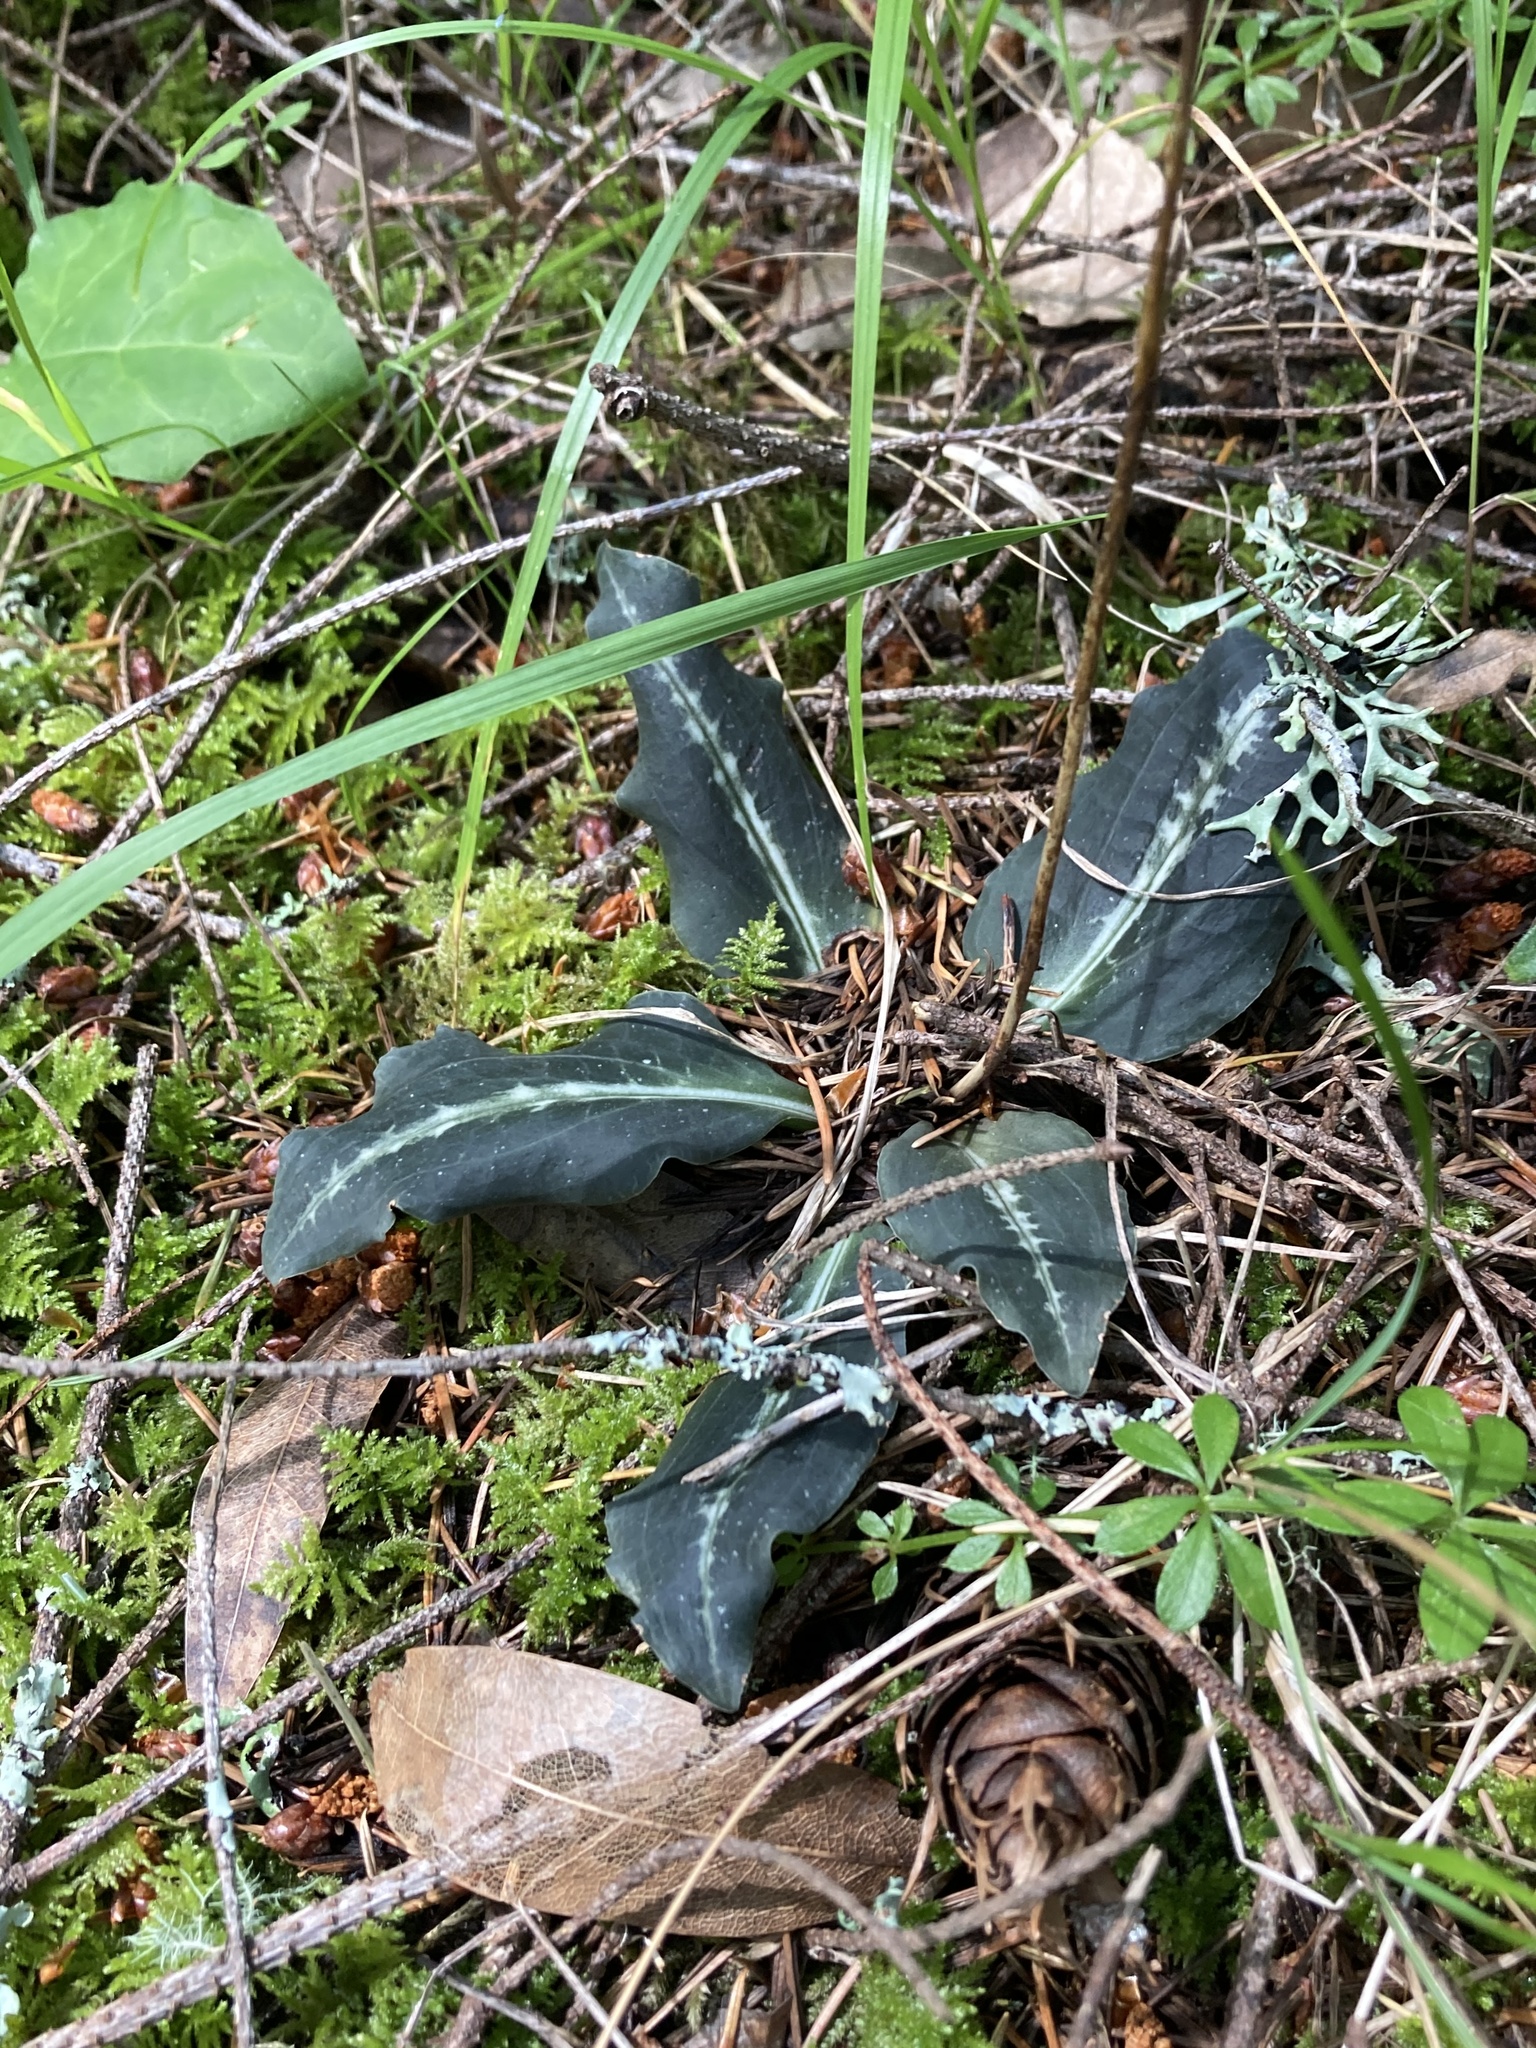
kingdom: Plantae
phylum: Tracheophyta
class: Liliopsida
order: Asparagales
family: Orchidaceae
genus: Goodyera
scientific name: Goodyera oblongifolia
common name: Giant rattlesnake-plantain
